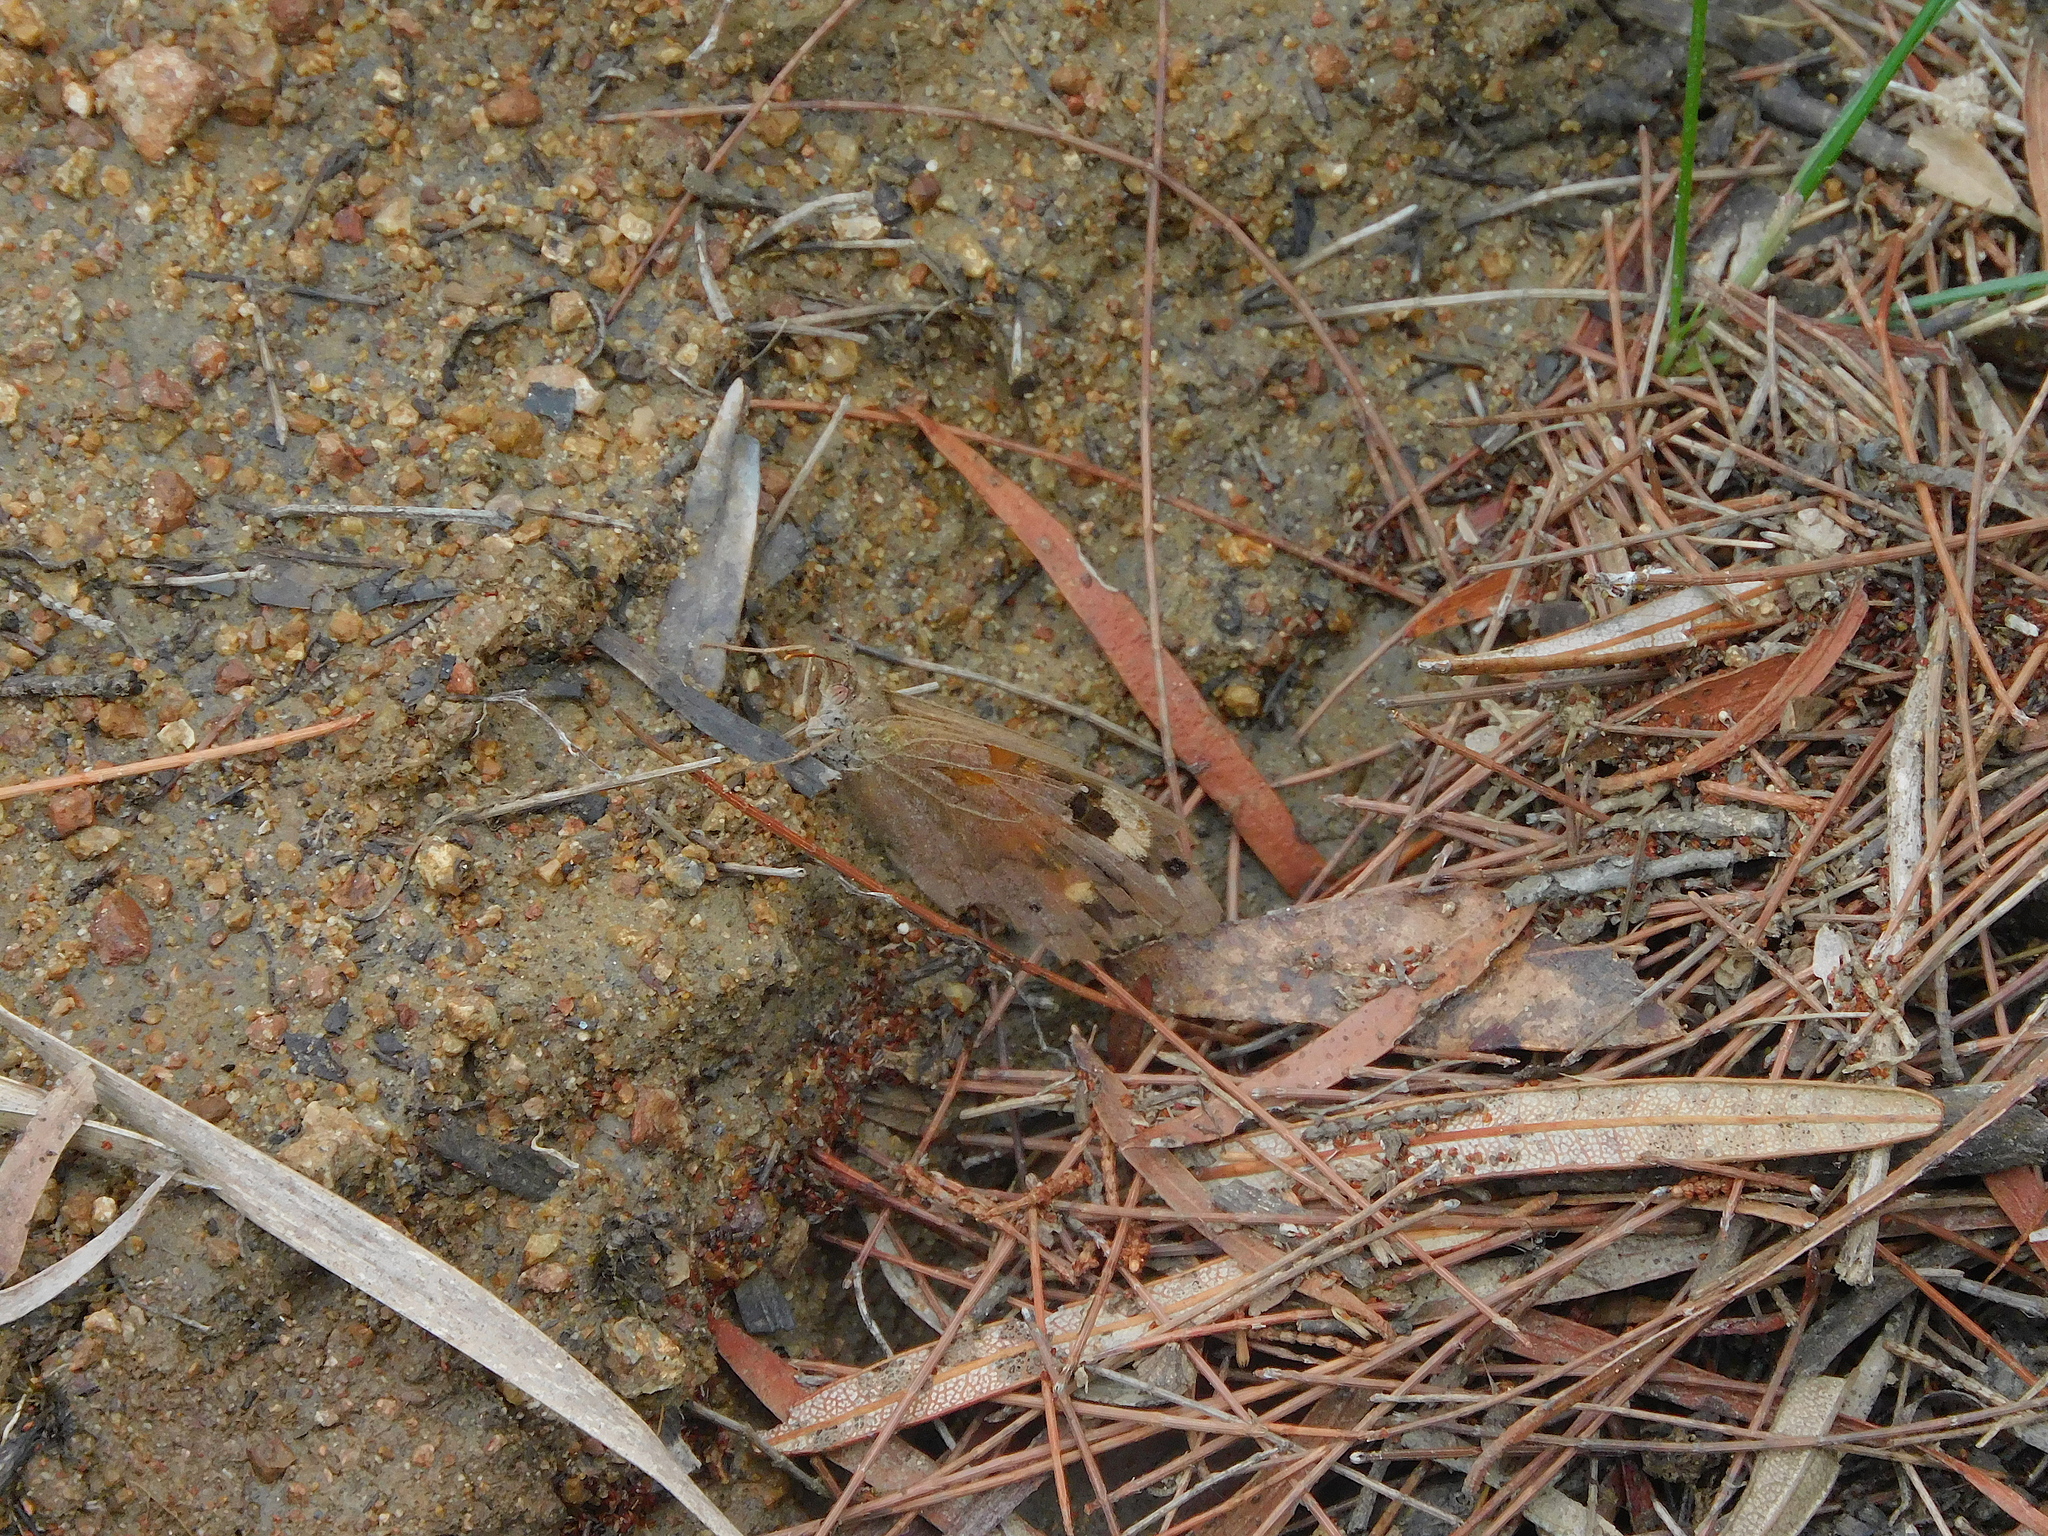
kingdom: Animalia
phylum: Arthropoda
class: Insecta
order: Lepidoptera
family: Nymphalidae
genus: Heteronympha
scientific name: Heteronympha merope
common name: Common brown
